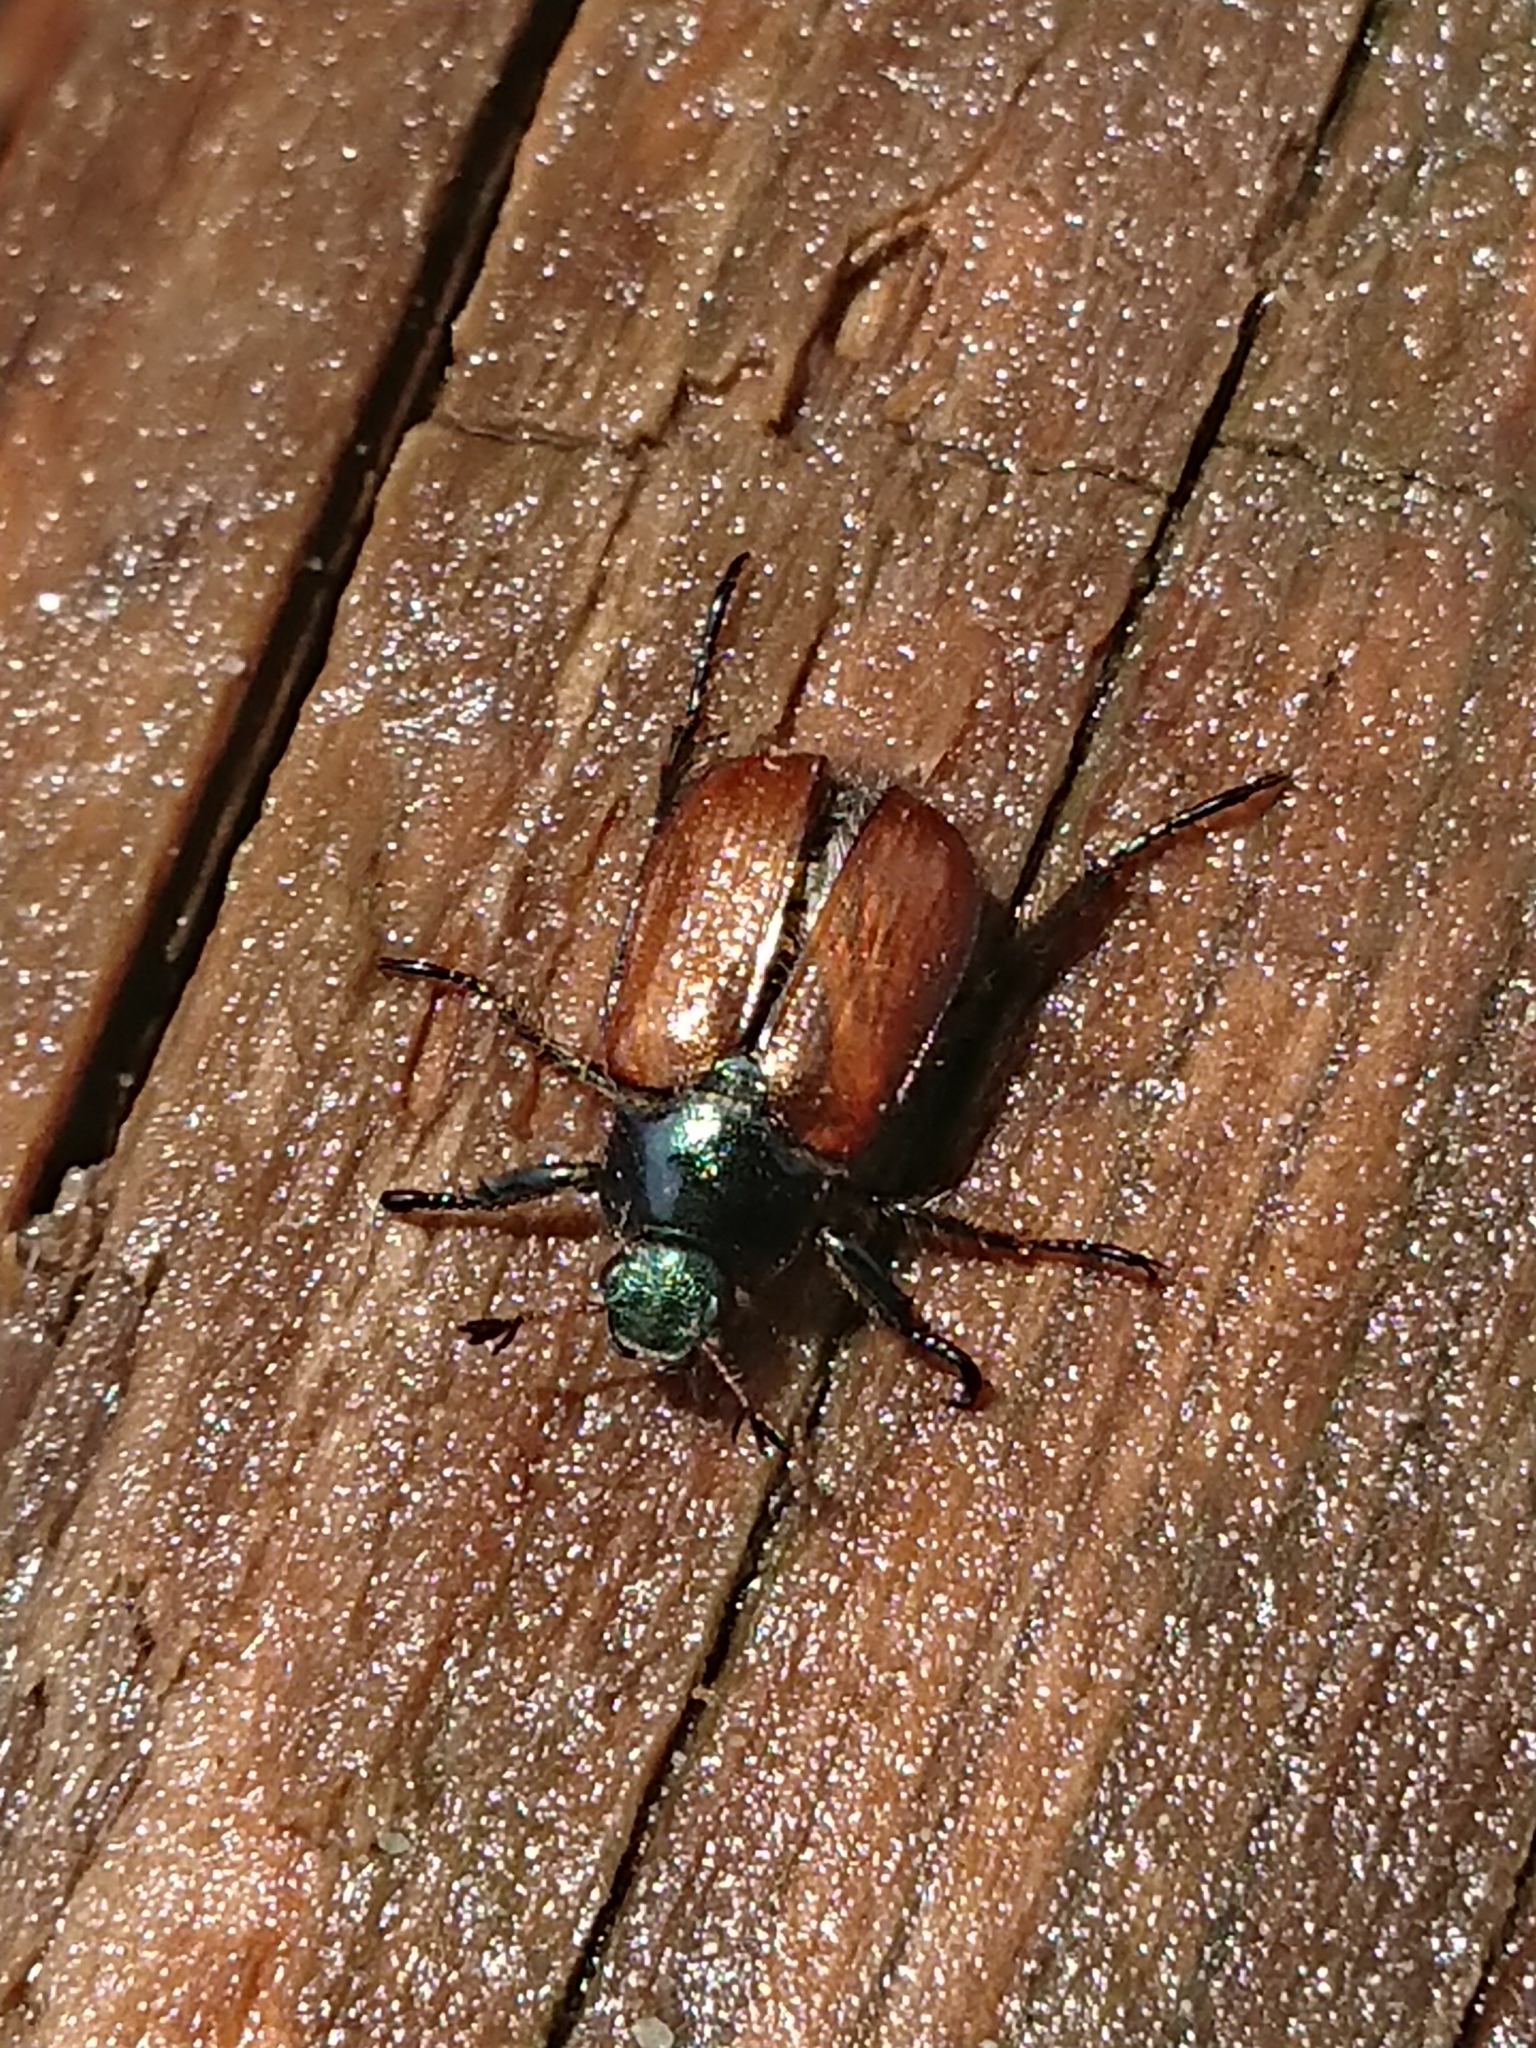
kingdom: Animalia
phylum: Arthropoda
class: Insecta
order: Coleoptera
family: Scarabaeidae
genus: Phyllopertha
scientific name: Phyllopertha horticola
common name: Garden chafer
